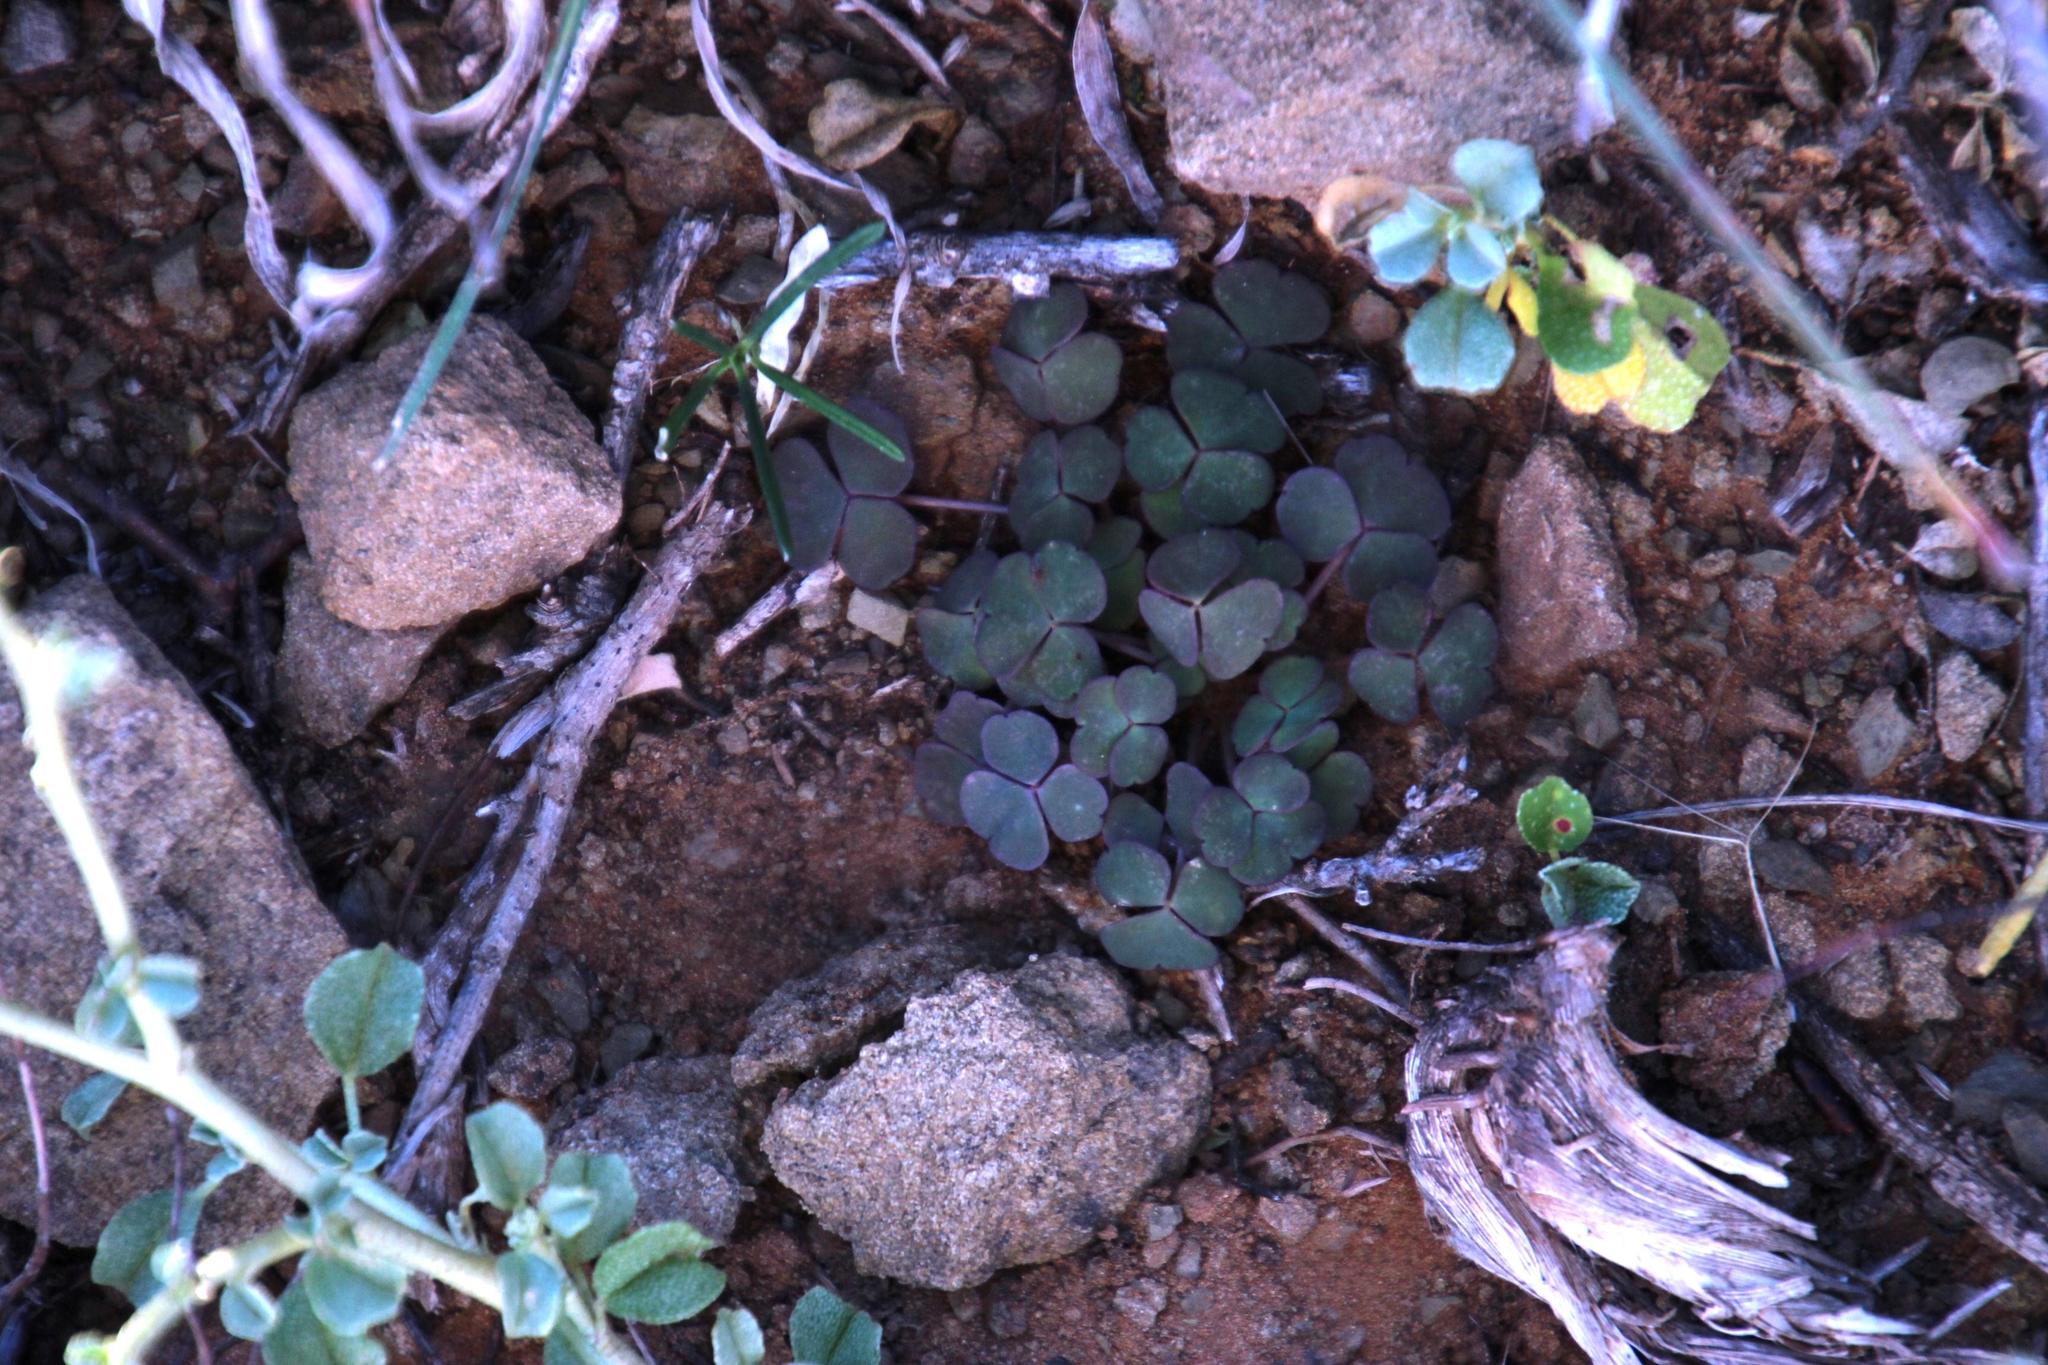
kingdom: Plantae
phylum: Tracheophyta
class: Magnoliopsida
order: Oxalidales
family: Oxalidaceae
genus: Oxalis
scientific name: Oxalis depressa
